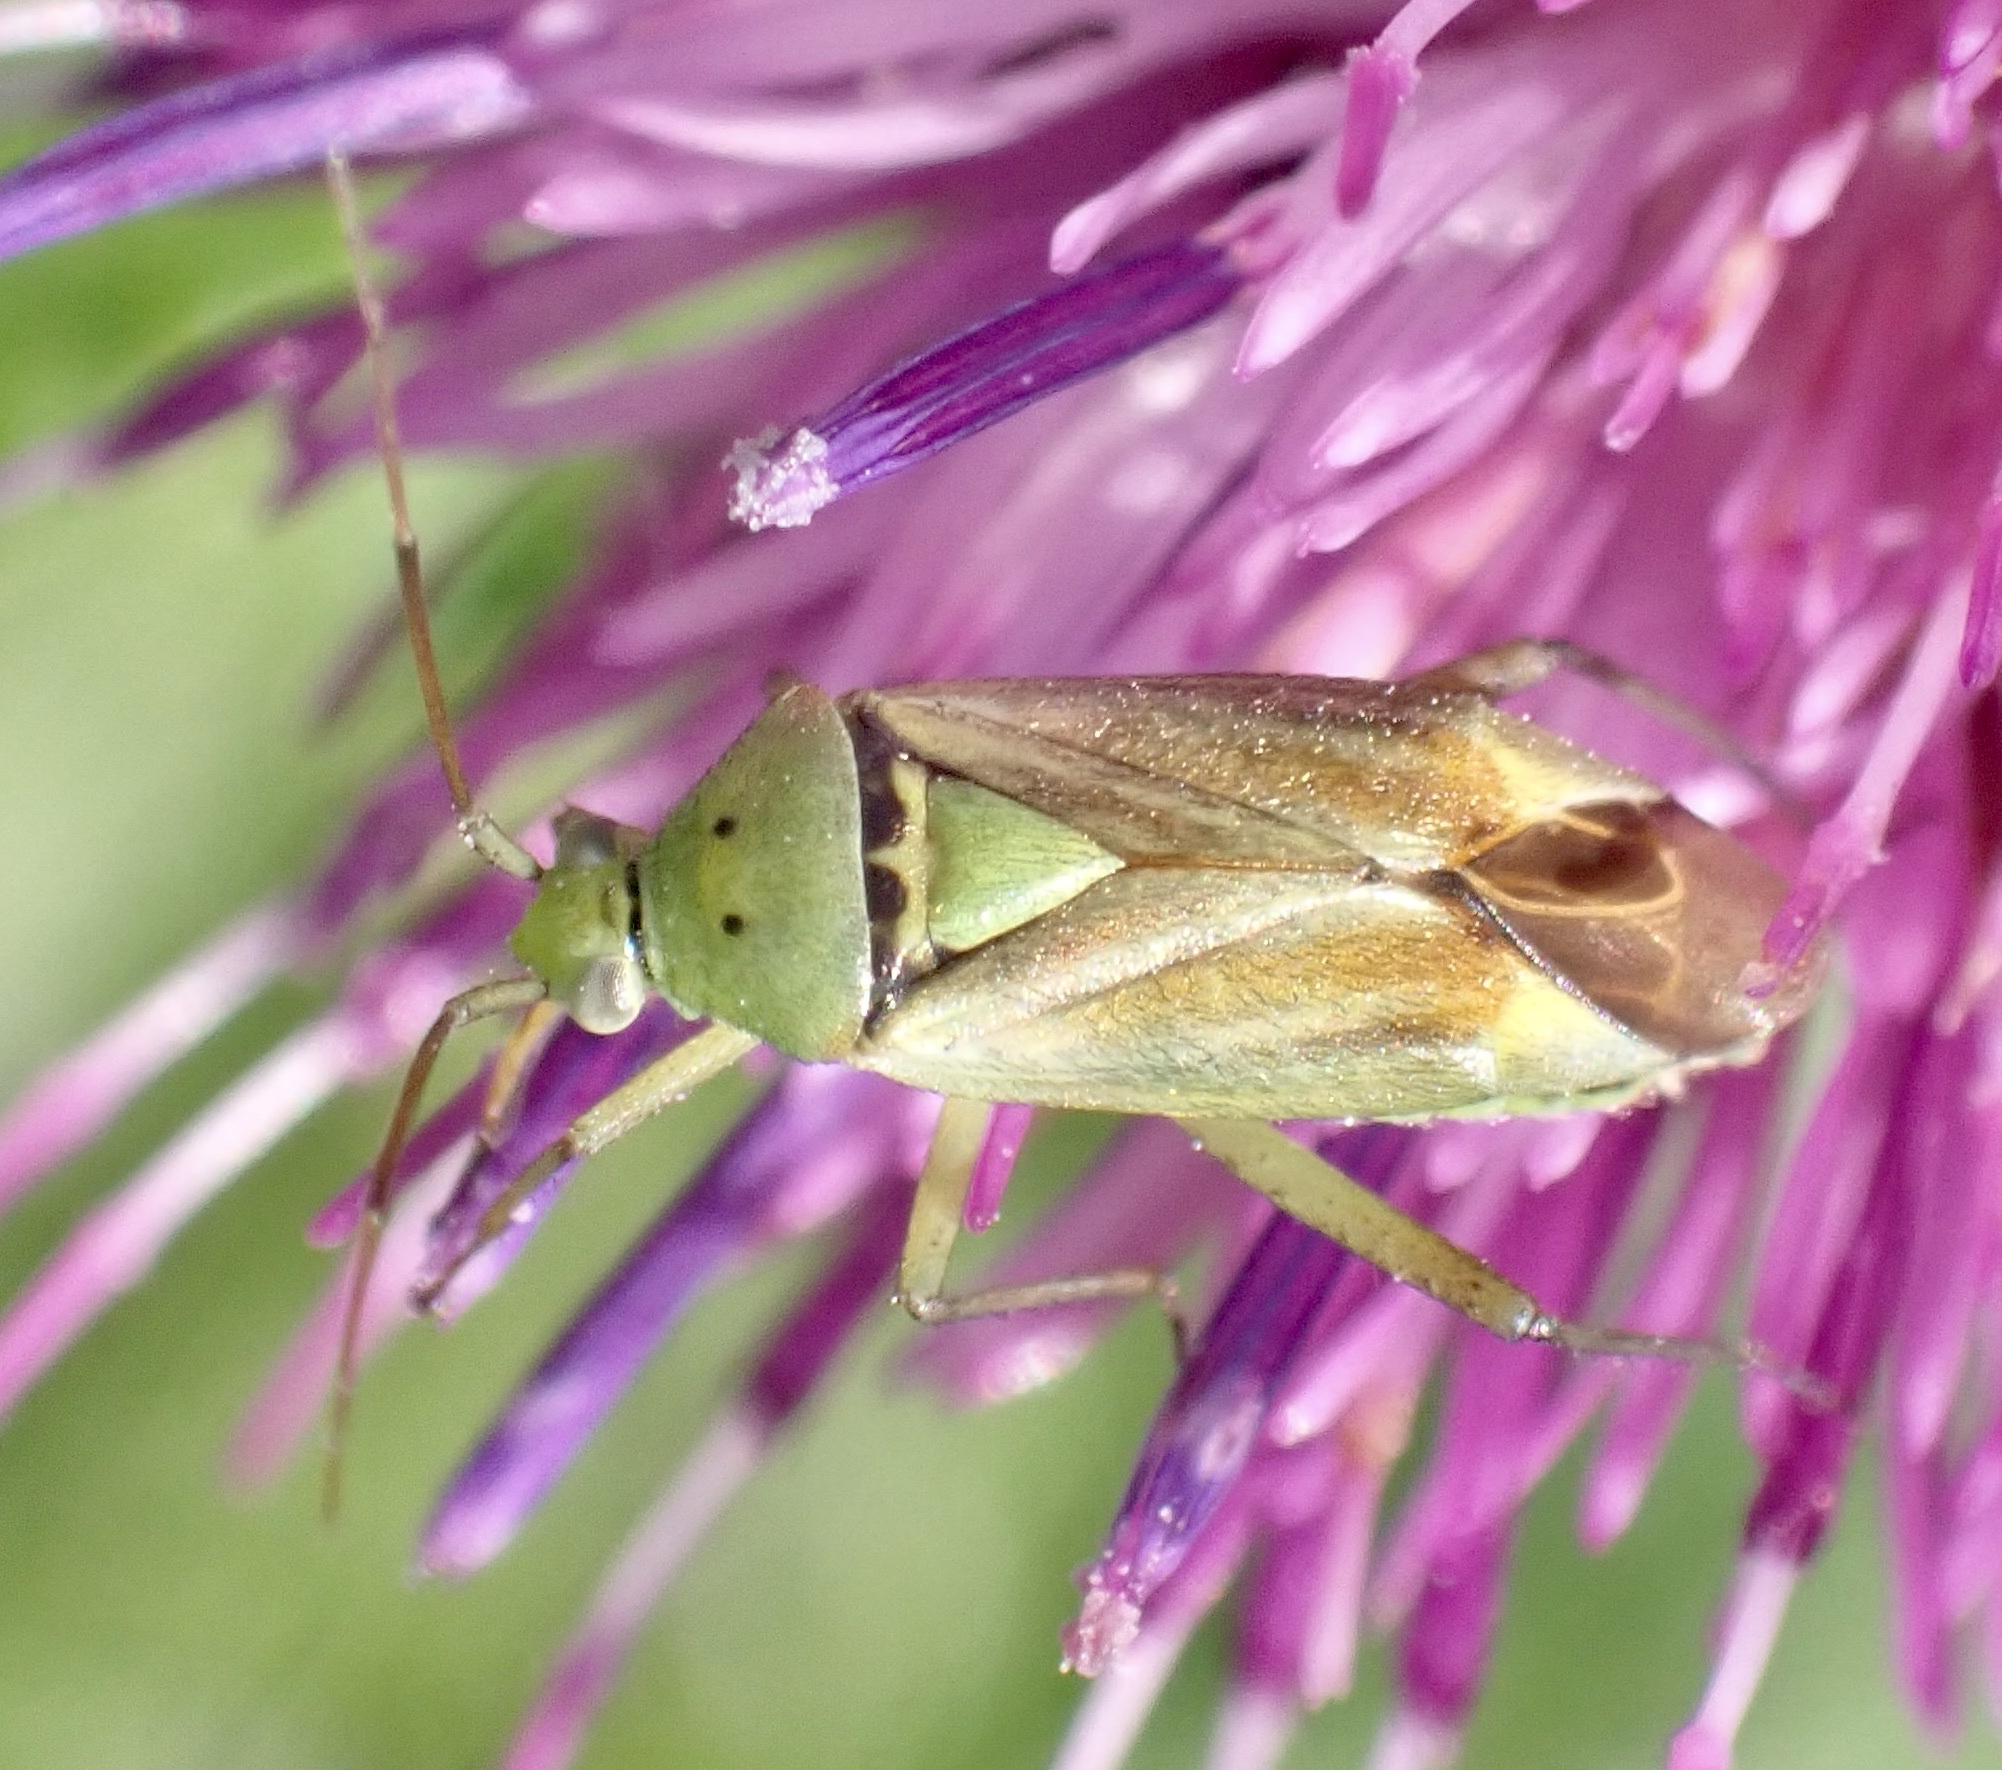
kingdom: Animalia
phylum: Arthropoda
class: Insecta
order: Hemiptera
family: Miridae
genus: Closterotomus
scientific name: Closterotomus norvegicus
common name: Plant bug
